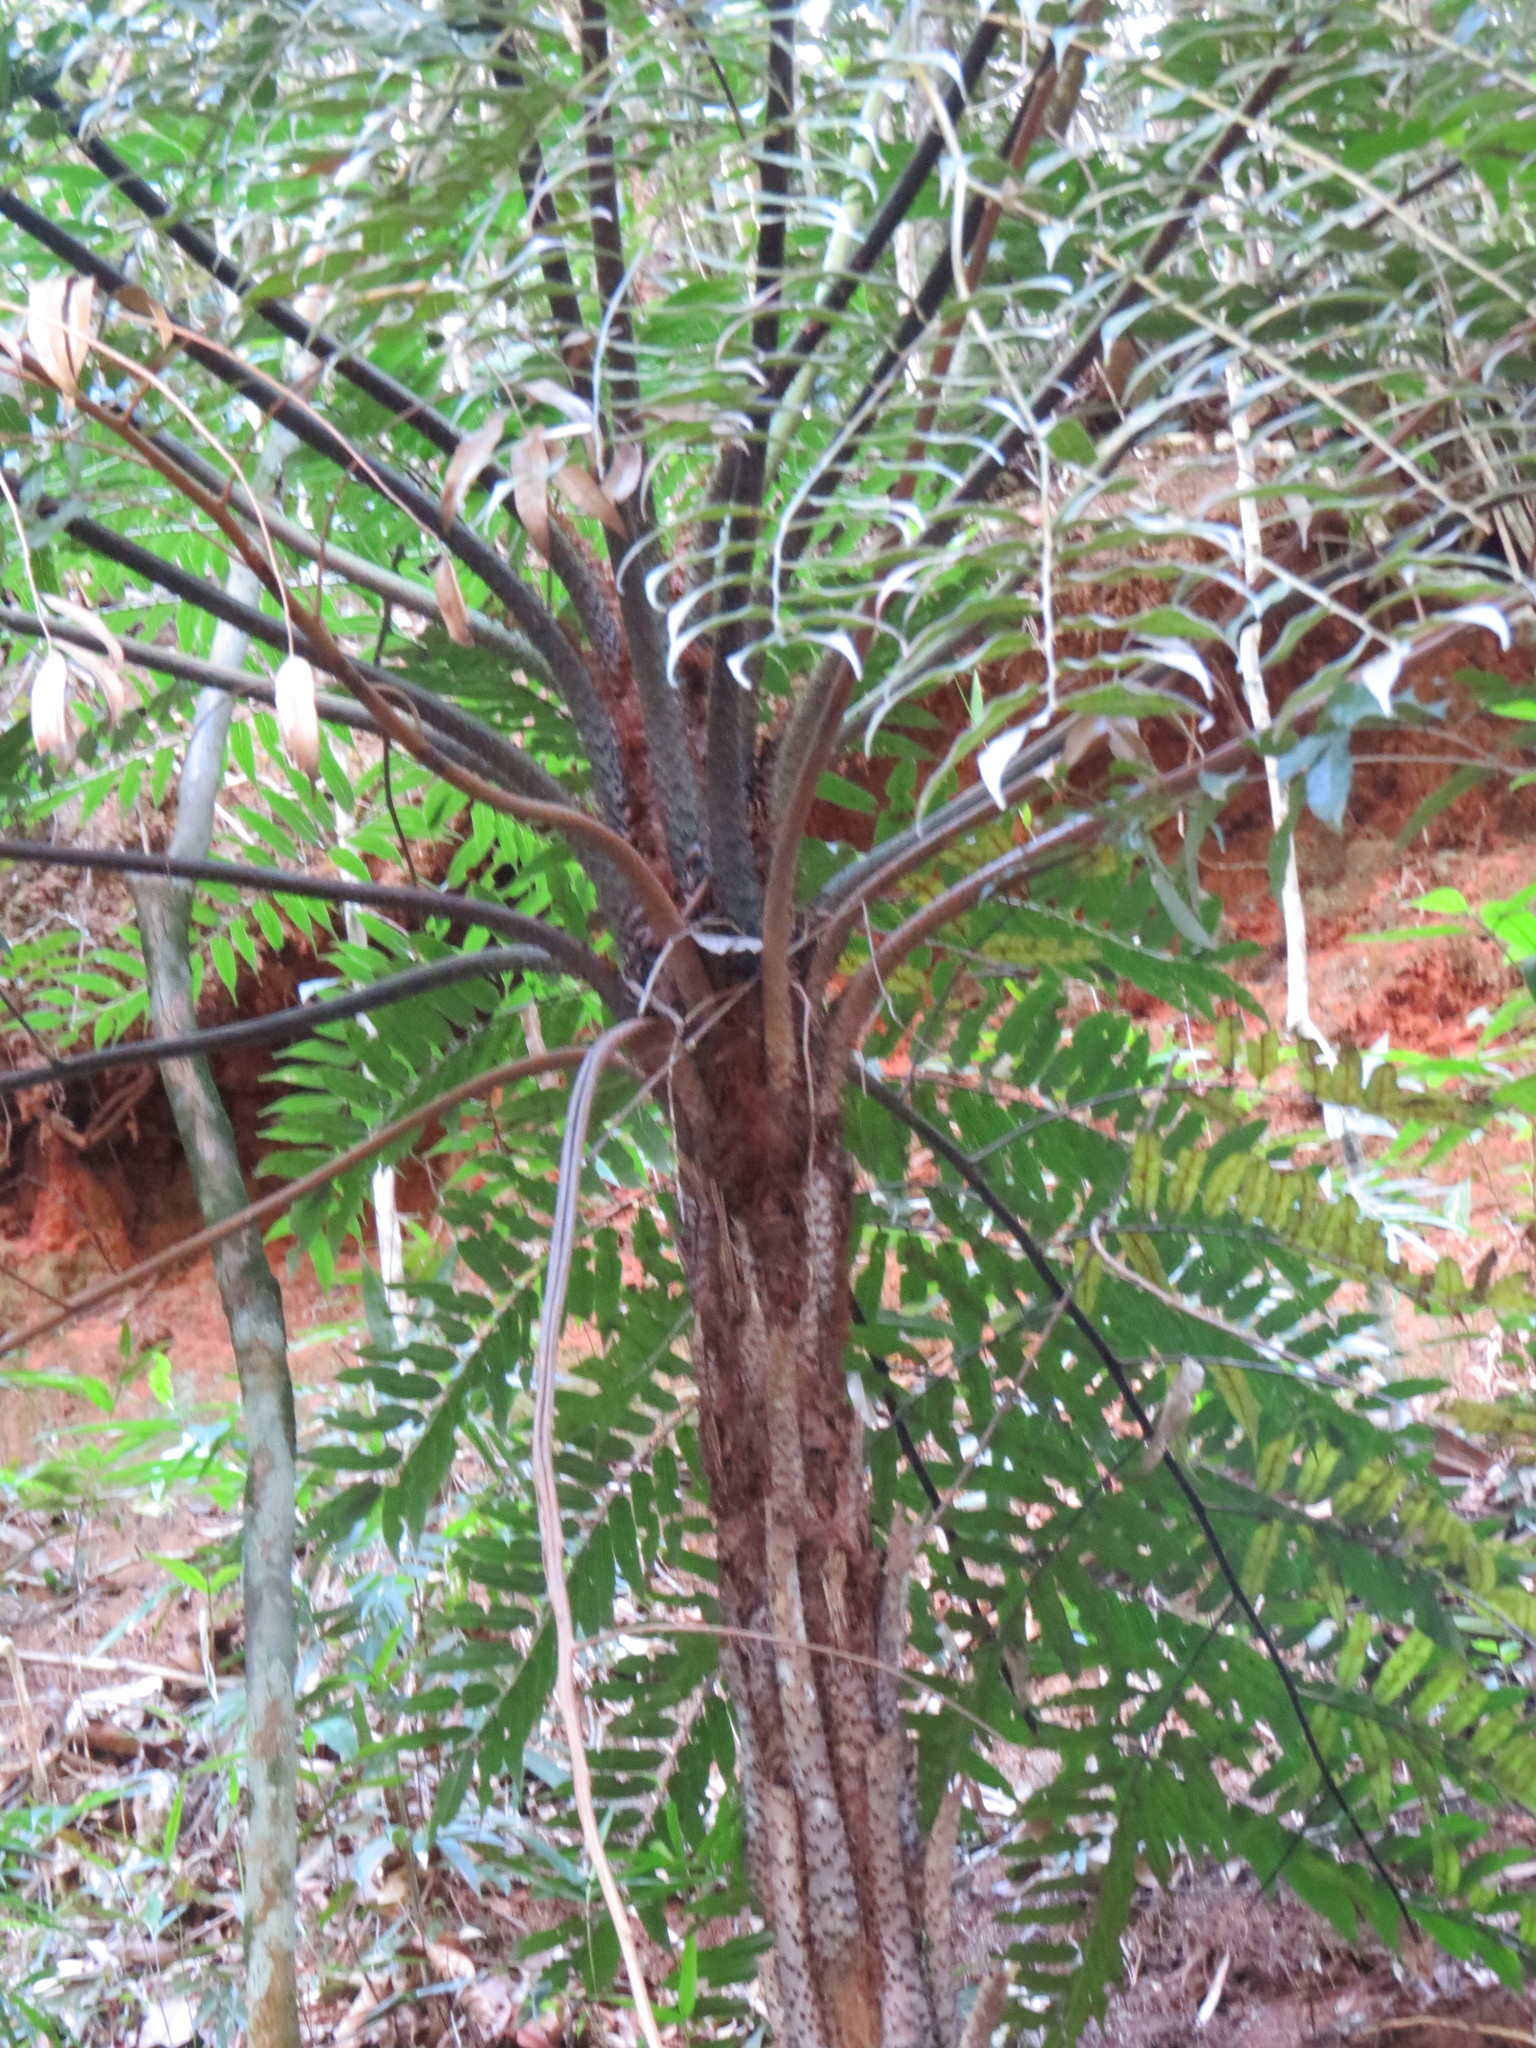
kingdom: Plantae
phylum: Tracheophyta
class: Polypodiopsida
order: Cyatheales
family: Cyatheaceae
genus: Cyathea
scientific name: Cyathea corcovadensis
